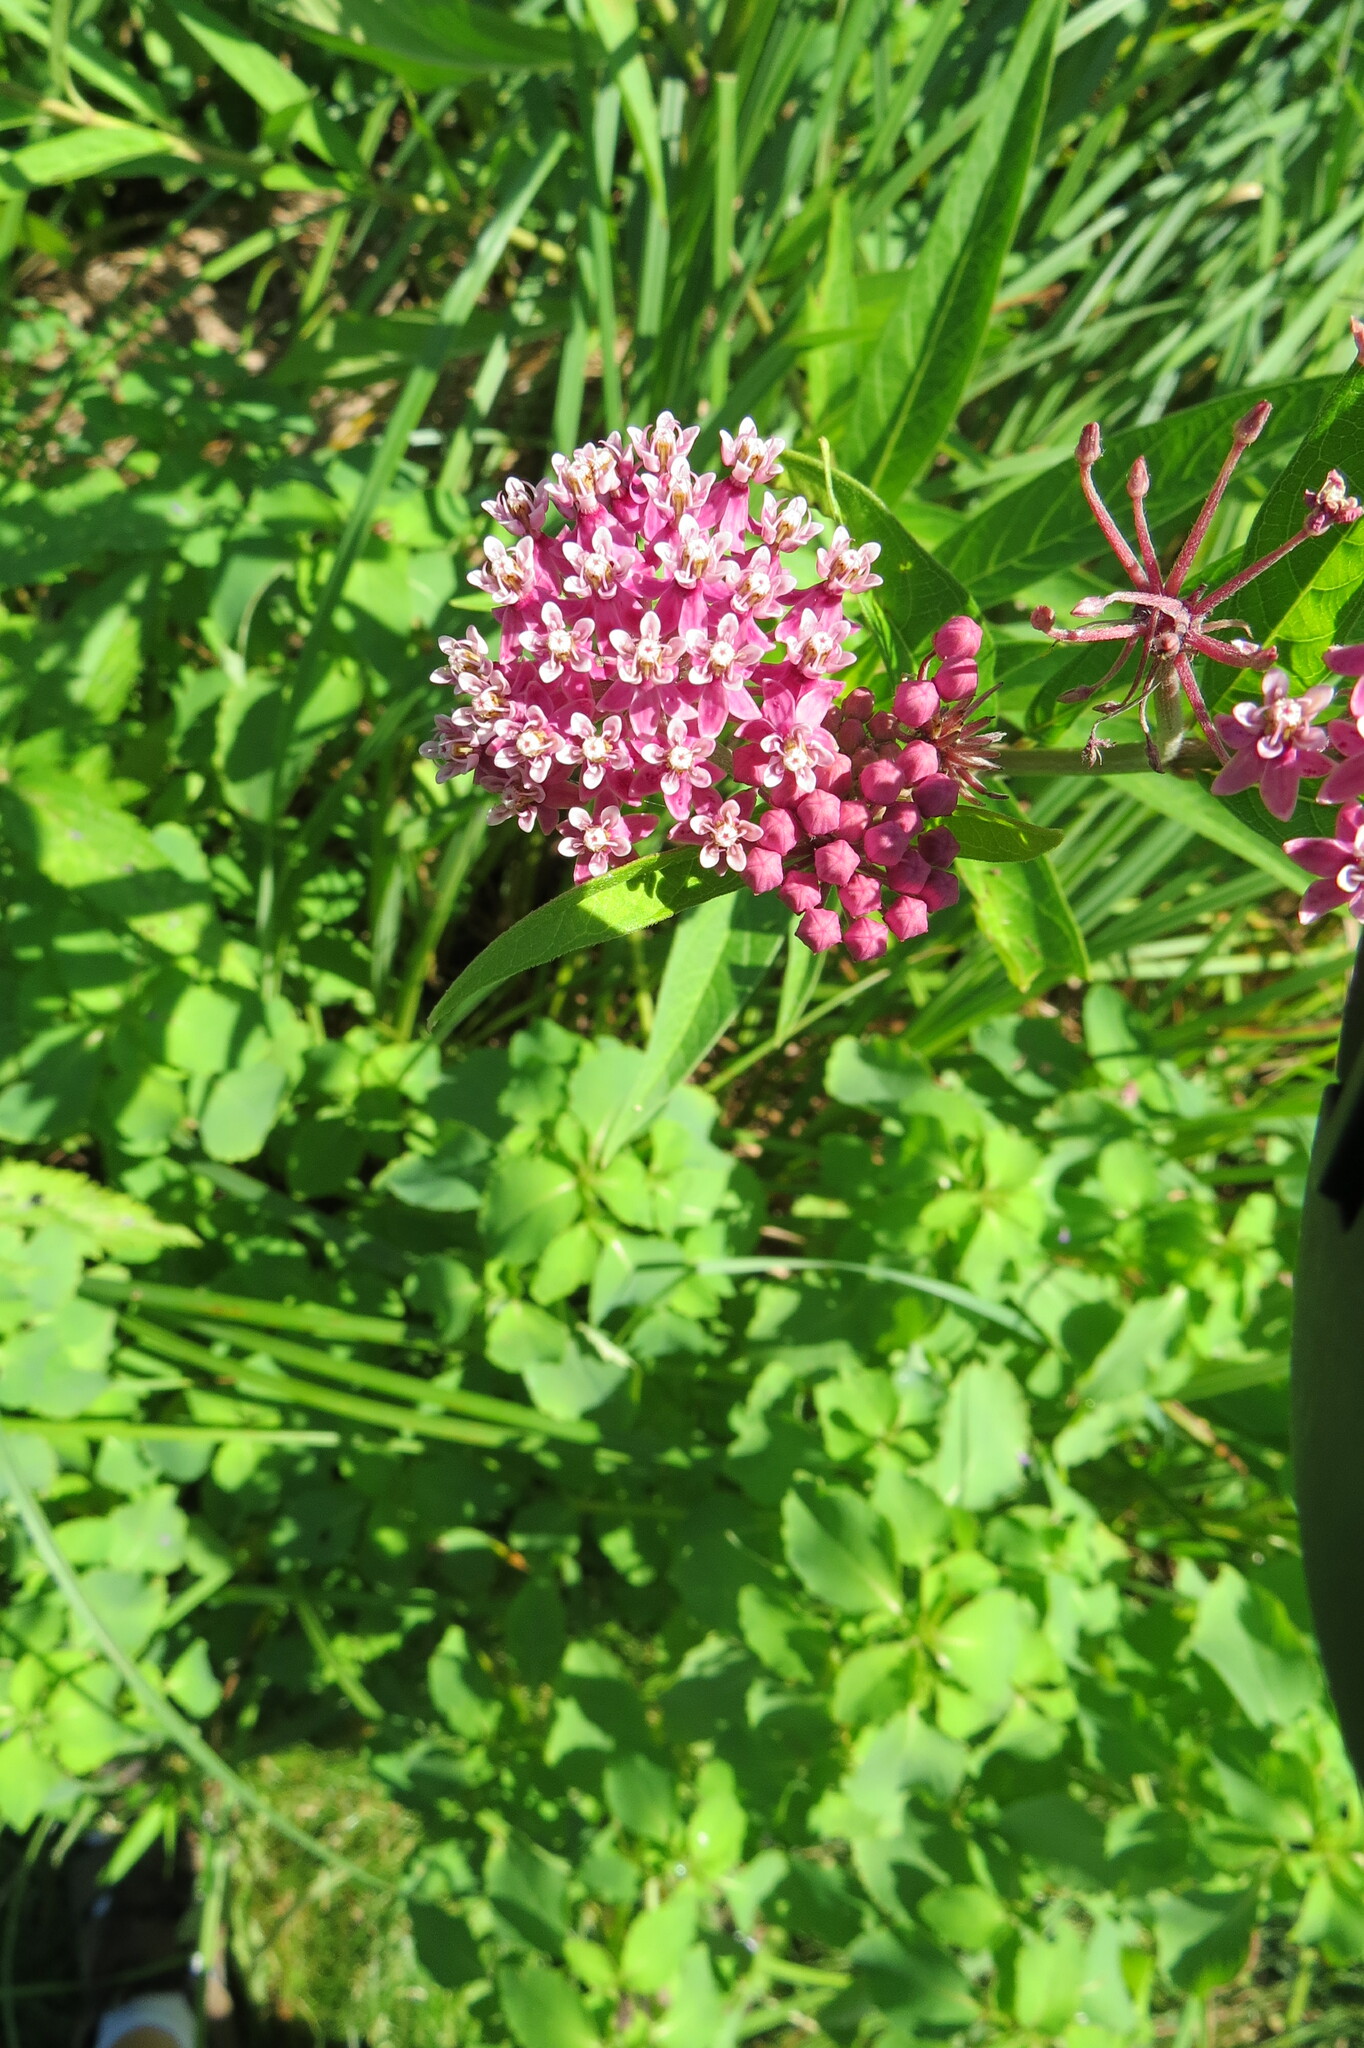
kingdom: Plantae
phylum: Tracheophyta
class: Magnoliopsida
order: Gentianales
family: Apocynaceae
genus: Asclepias
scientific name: Asclepias incarnata
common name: Swamp milkweed
